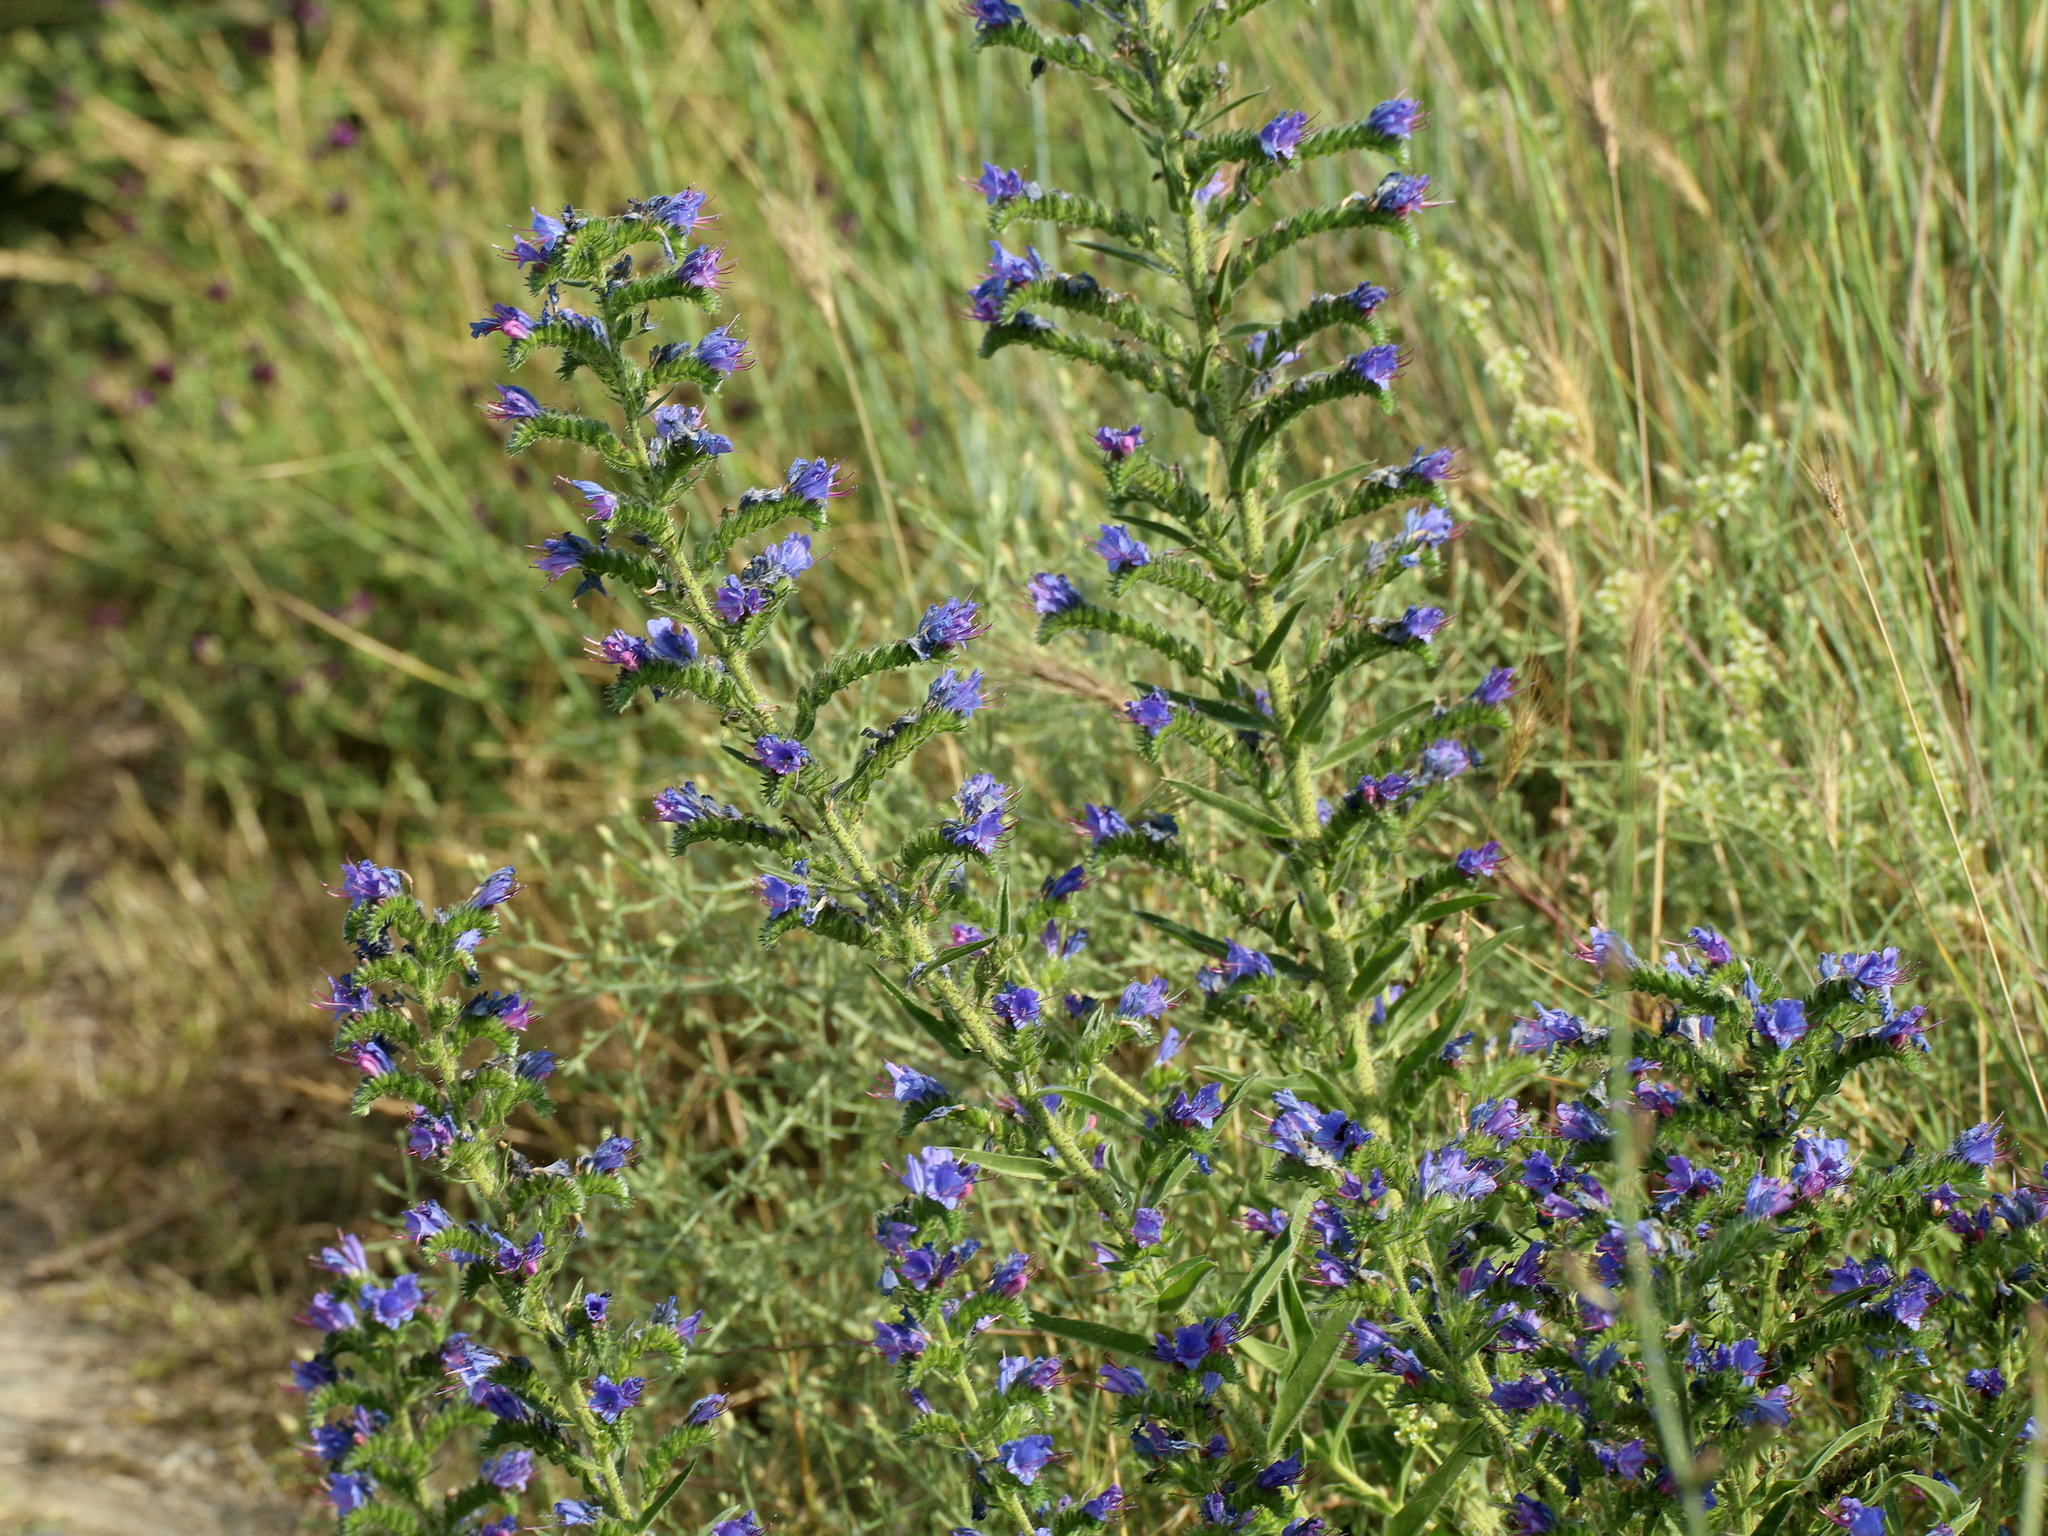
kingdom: Plantae
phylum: Tracheophyta
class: Magnoliopsida
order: Boraginales
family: Boraginaceae
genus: Echium
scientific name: Echium vulgare
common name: Common viper's bugloss
